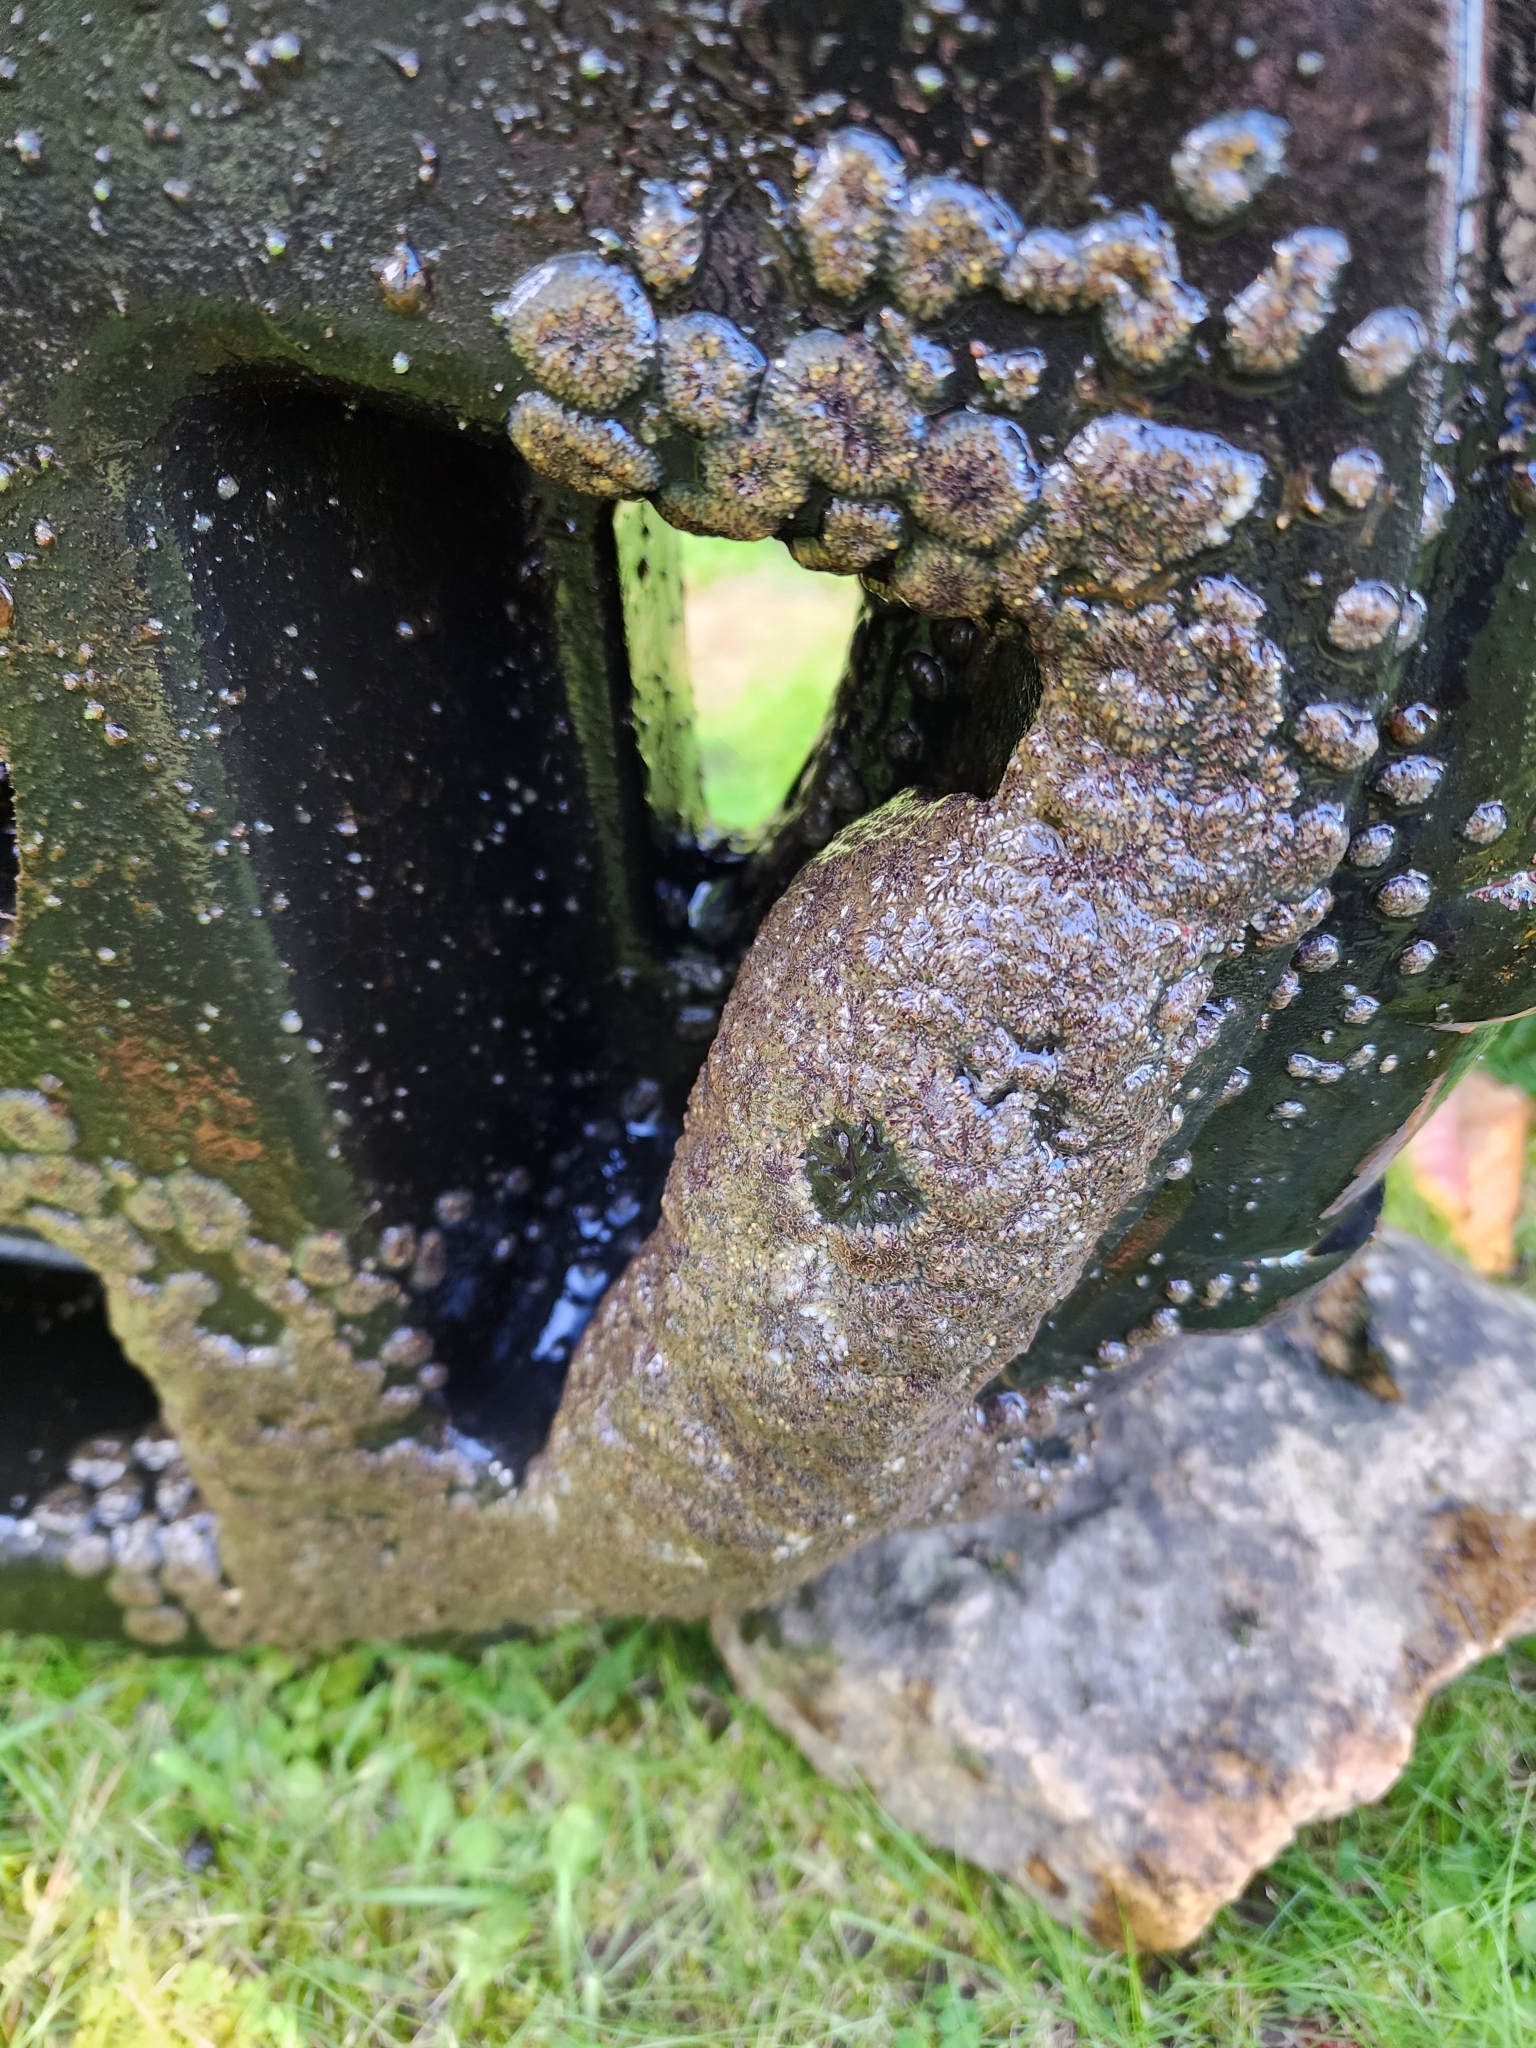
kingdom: Animalia
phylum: Bryozoa
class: Phylactolaemata
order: Plumatellida
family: Pectinatellidae
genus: Pectinatella
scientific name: Pectinatella magnifica
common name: Magnificent bryozoan
